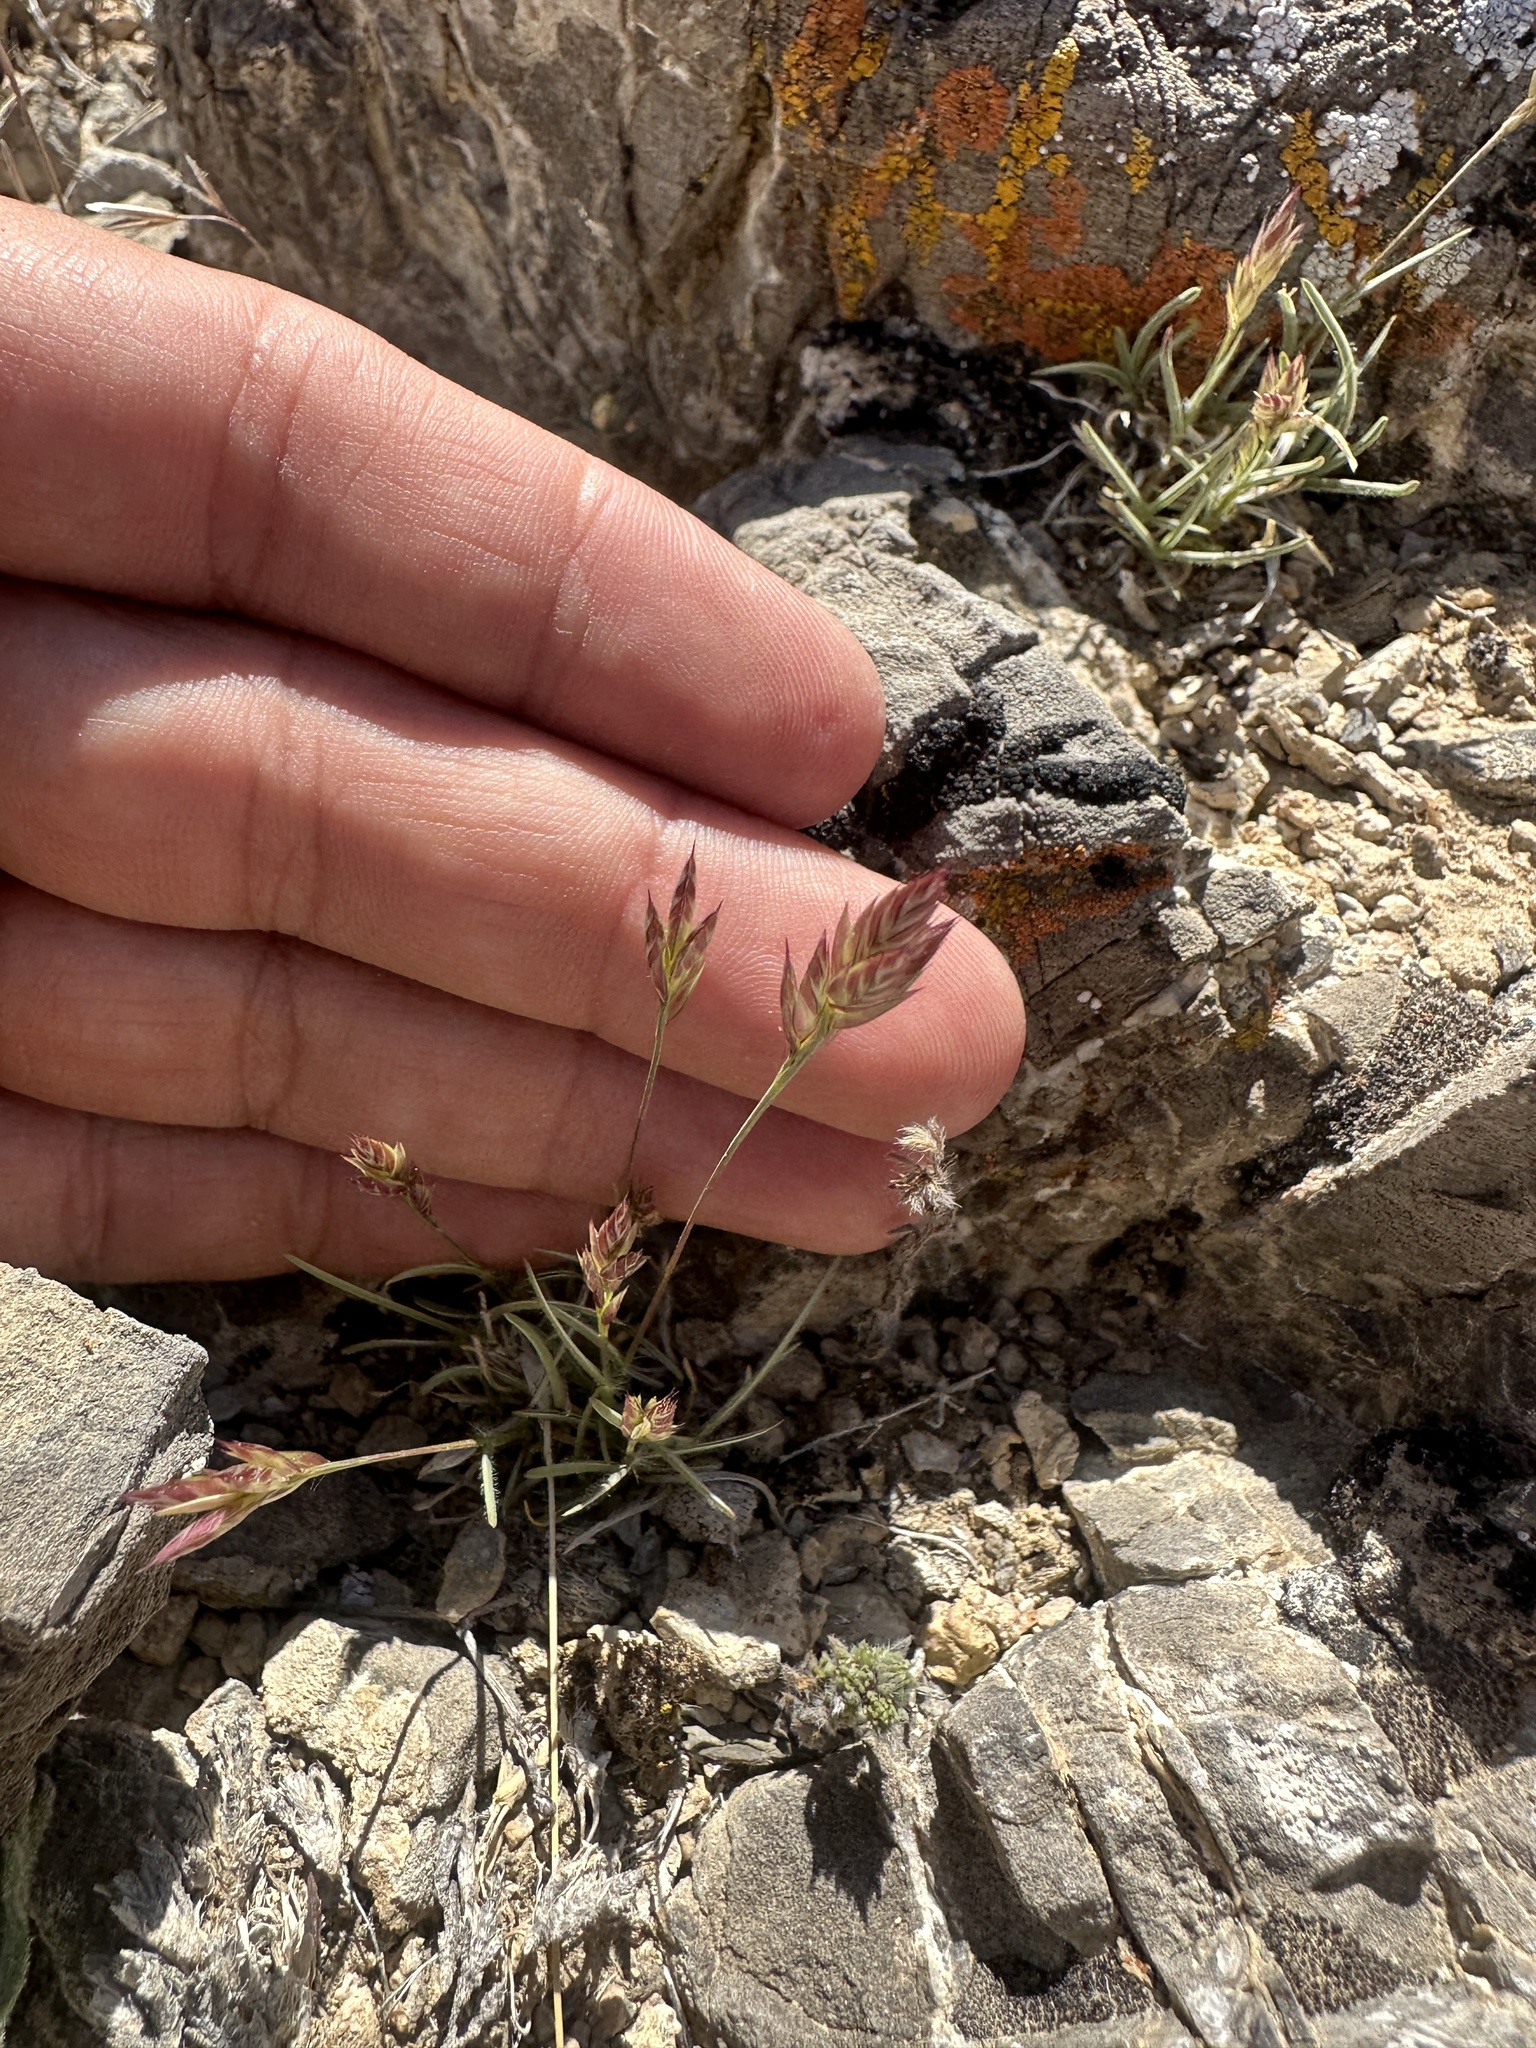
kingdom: Plantae
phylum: Tracheophyta
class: Liliopsida
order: Poales
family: Poaceae
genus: Erioneuron
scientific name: Erioneuron pilosum
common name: Hairy woolly grass
